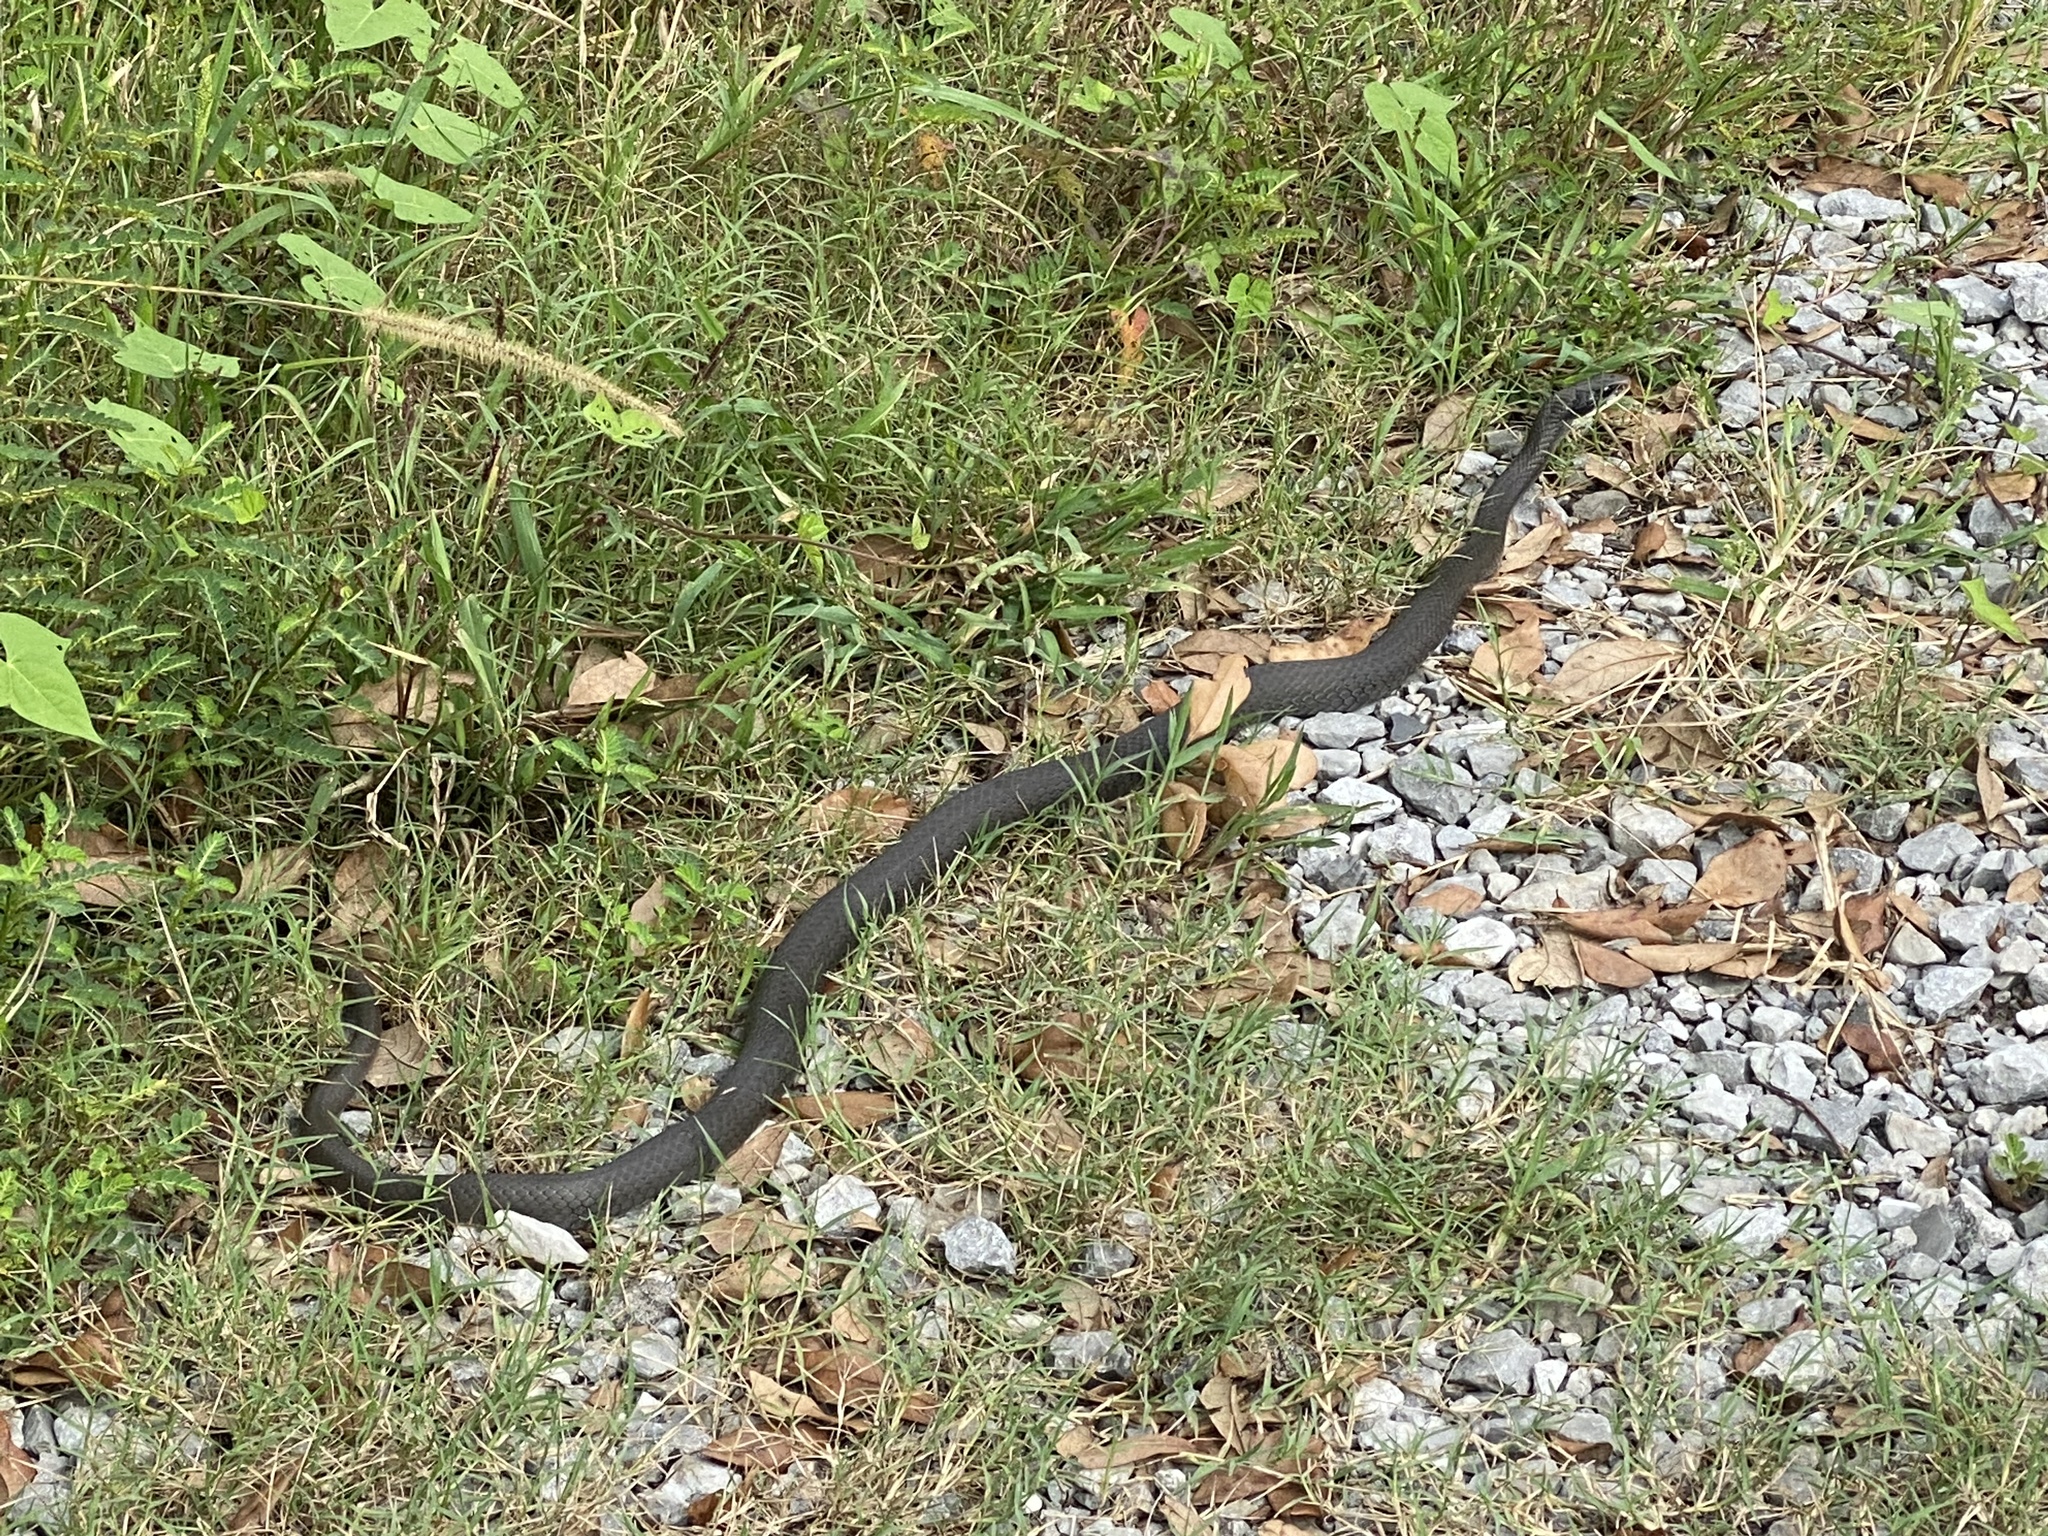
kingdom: Animalia
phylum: Chordata
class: Squamata
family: Colubridae
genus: Coluber
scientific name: Coluber constrictor
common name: Eastern racer
